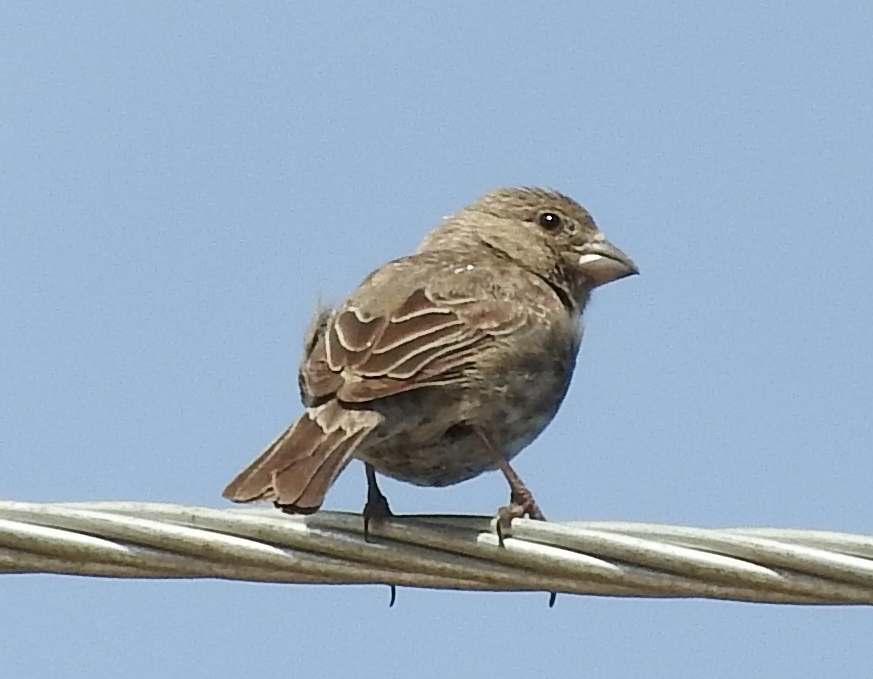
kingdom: Animalia
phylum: Chordata
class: Aves
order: Passeriformes
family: Fringillidae
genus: Haemorhous
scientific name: Haemorhous mexicanus
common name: House finch
